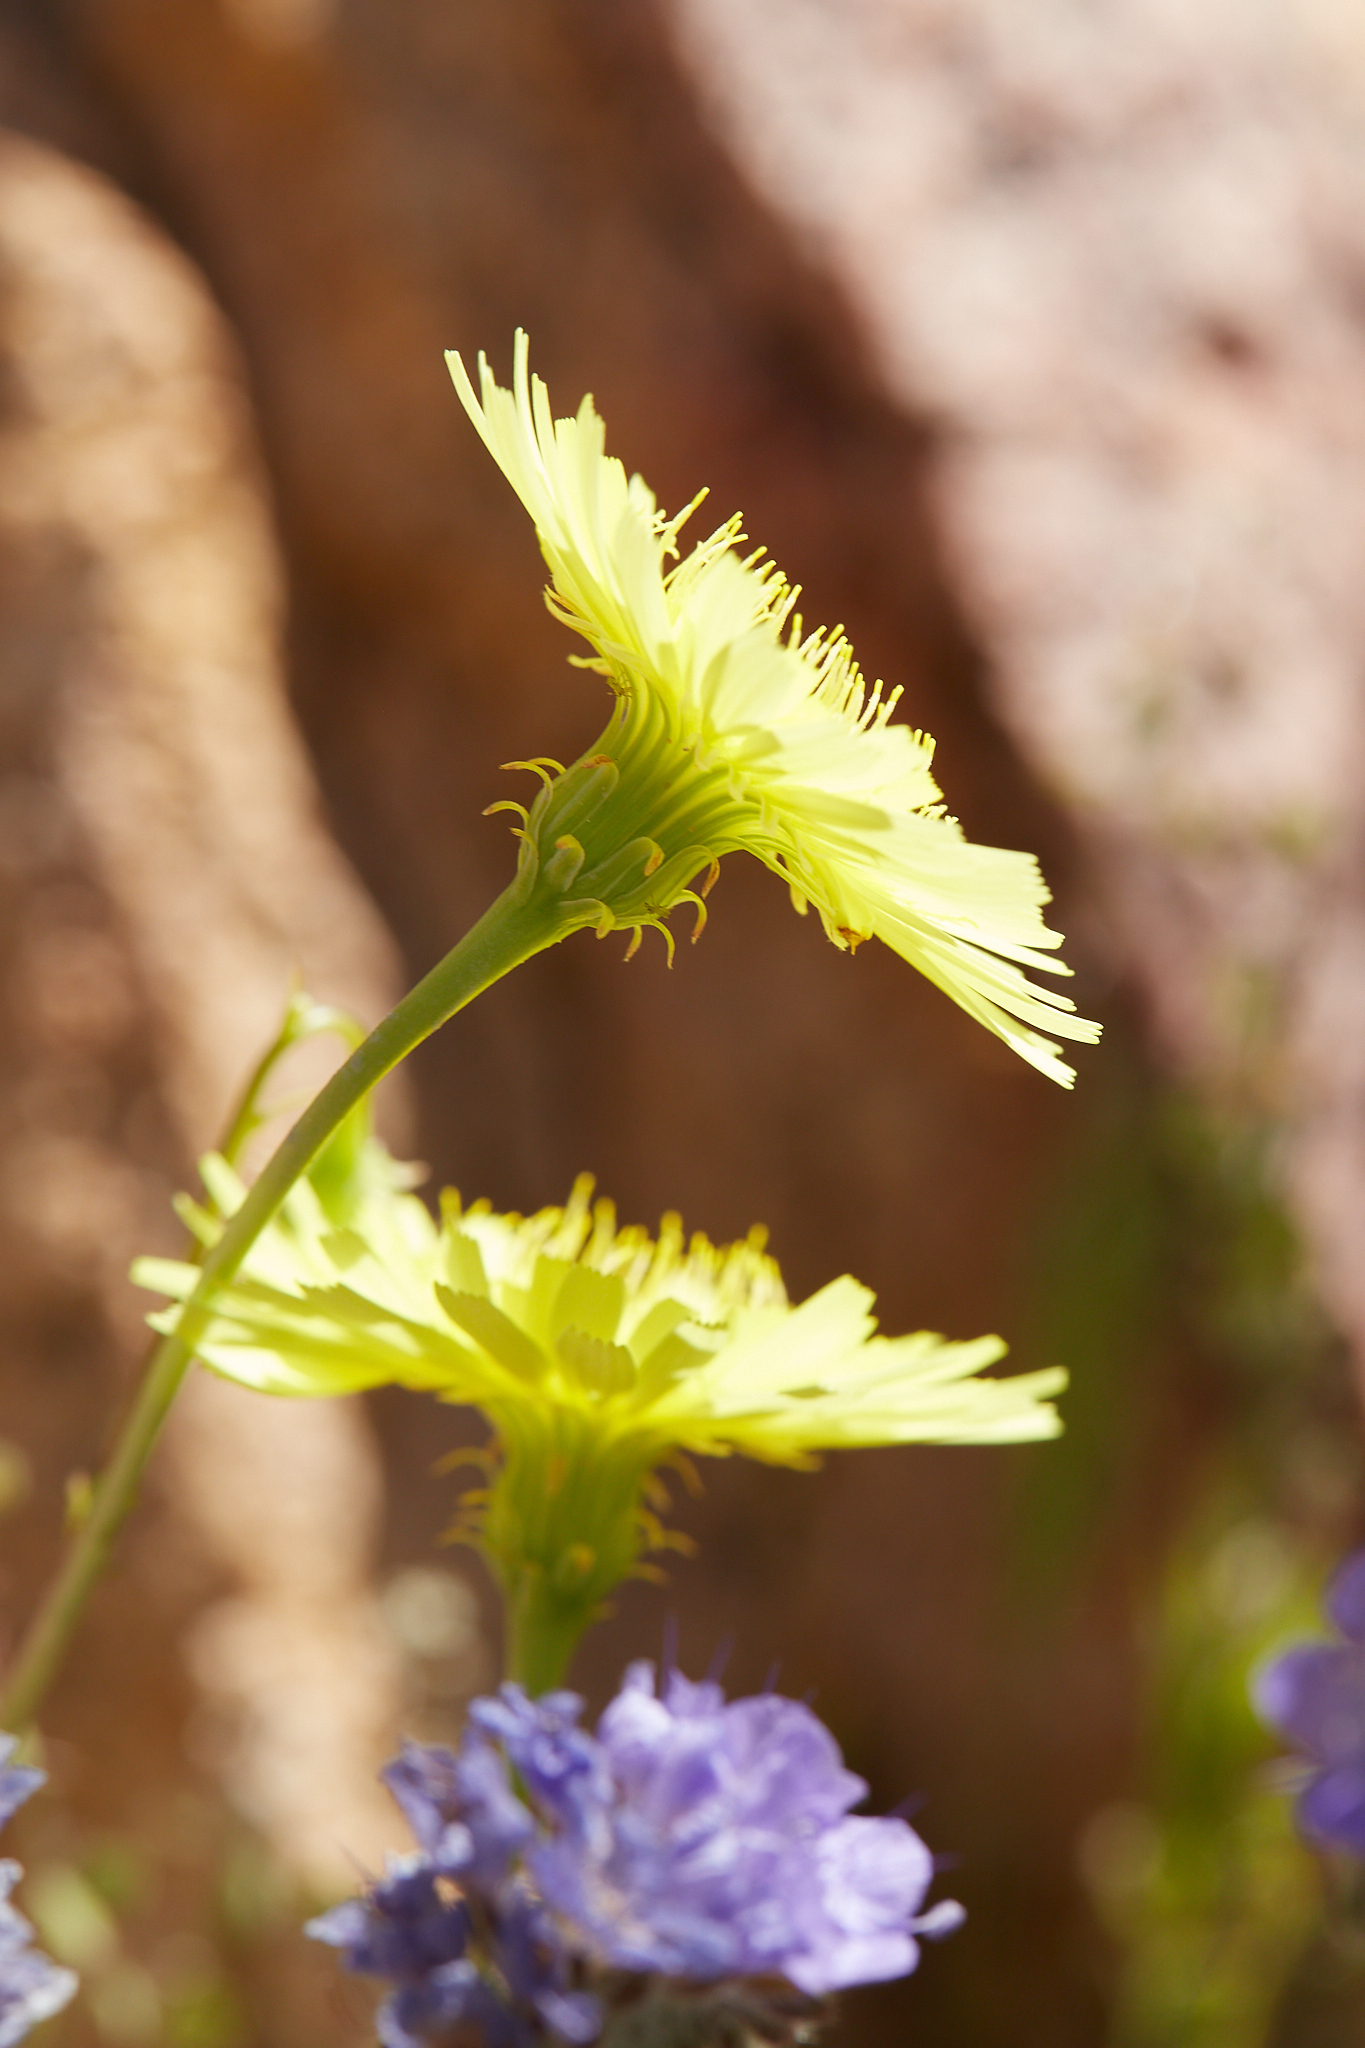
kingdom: Plantae
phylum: Tracheophyta
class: Magnoliopsida
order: Asterales
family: Asteraceae
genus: Malacothrix
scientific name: Malacothrix glabrata
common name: Smooth desert-dandelion
